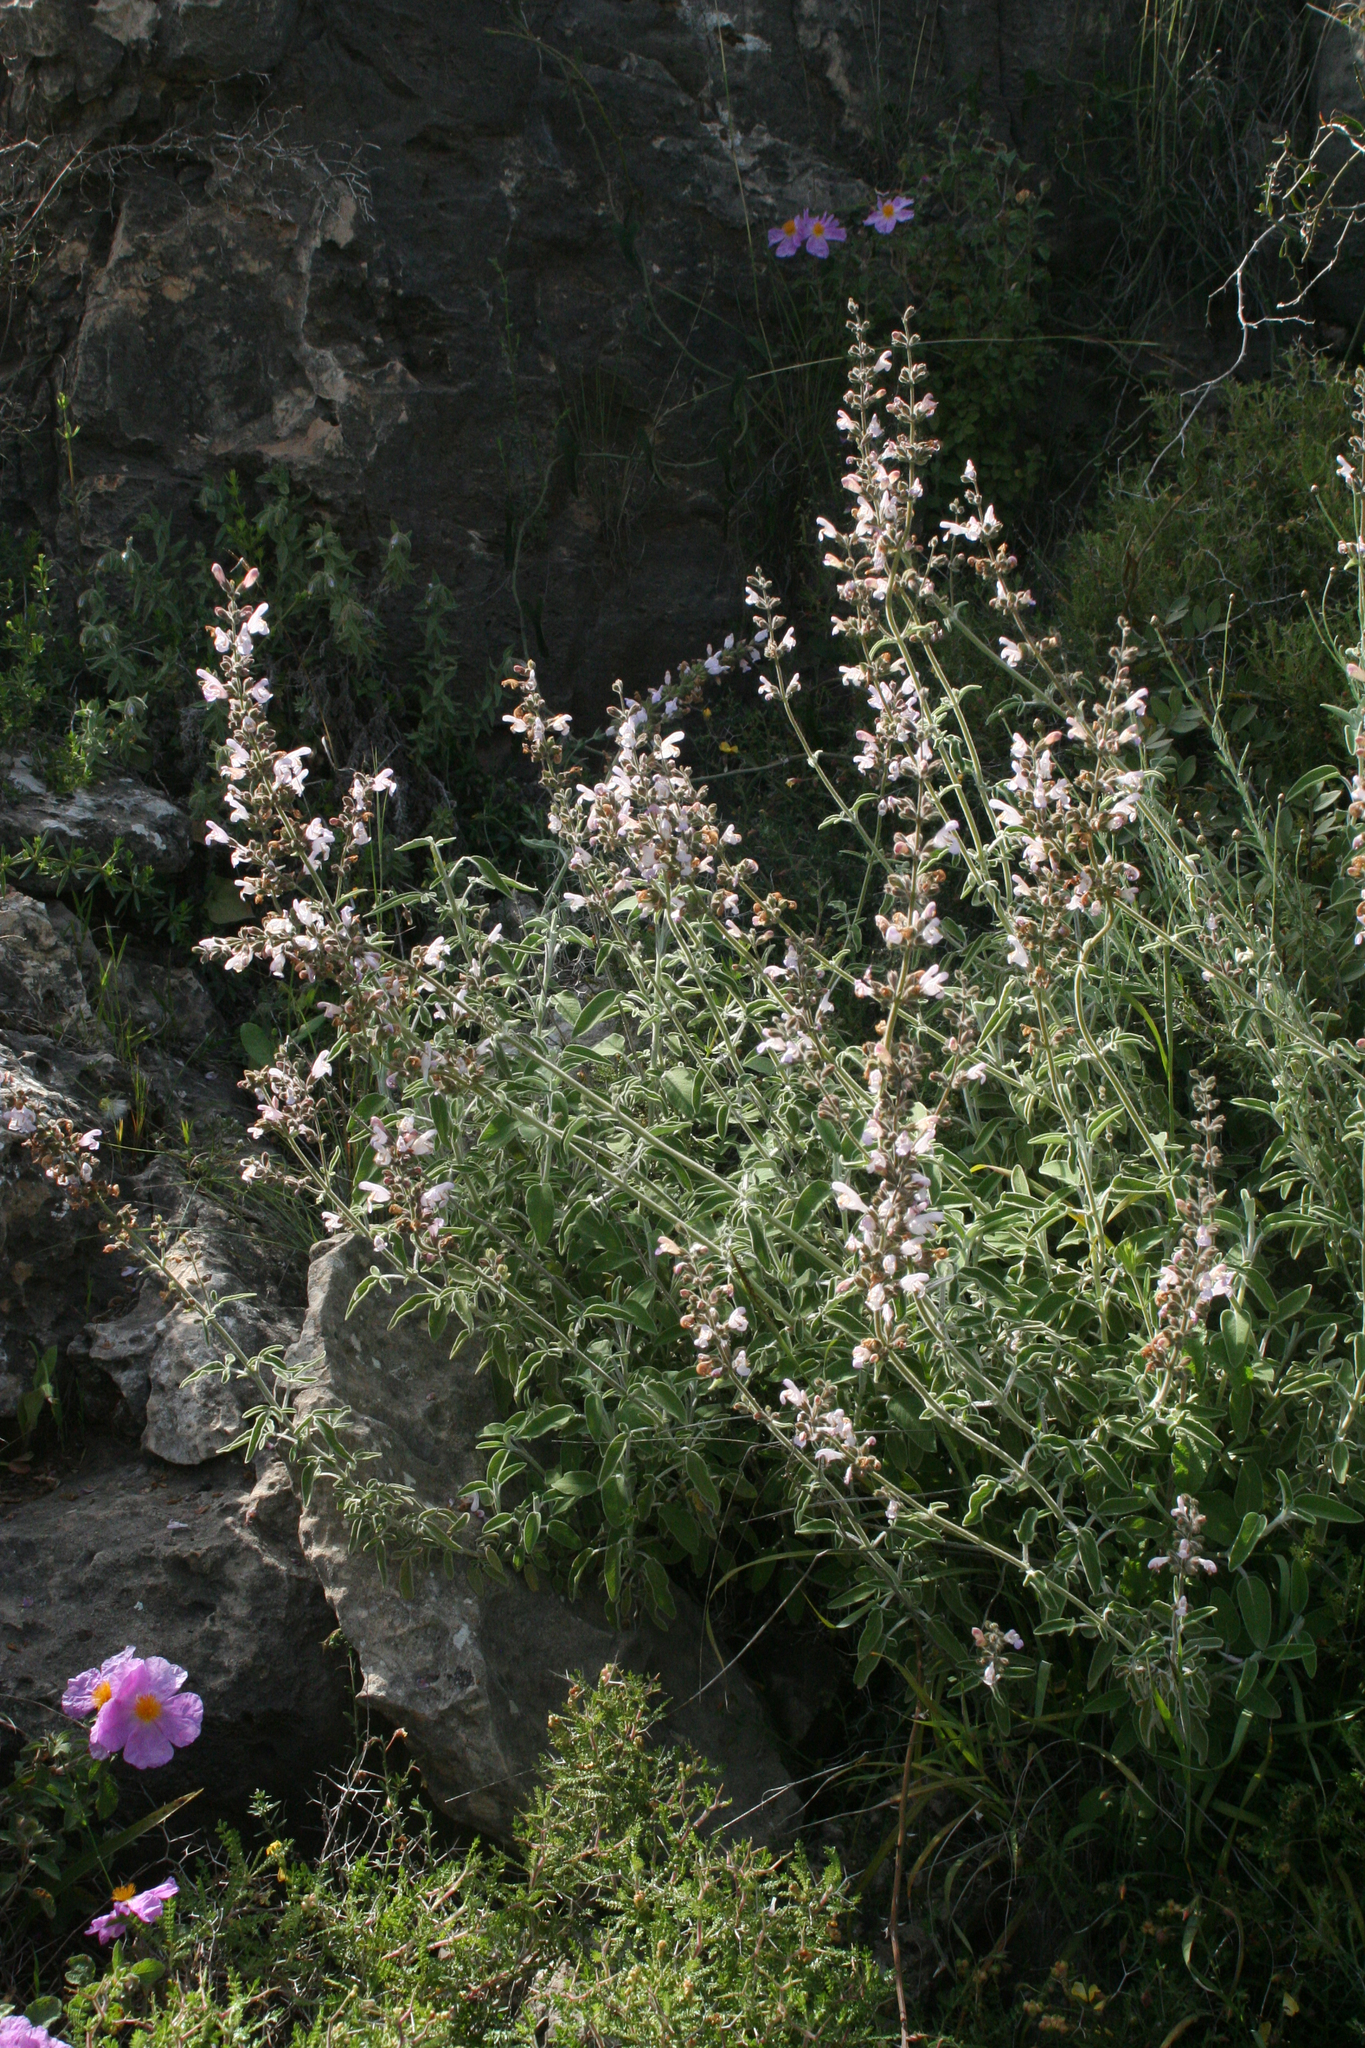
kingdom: Plantae
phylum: Tracheophyta
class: Magnoliopsida
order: Lamiales
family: Lamiaceae
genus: Salvia
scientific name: Salvia fruticosa
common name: Greek sage
